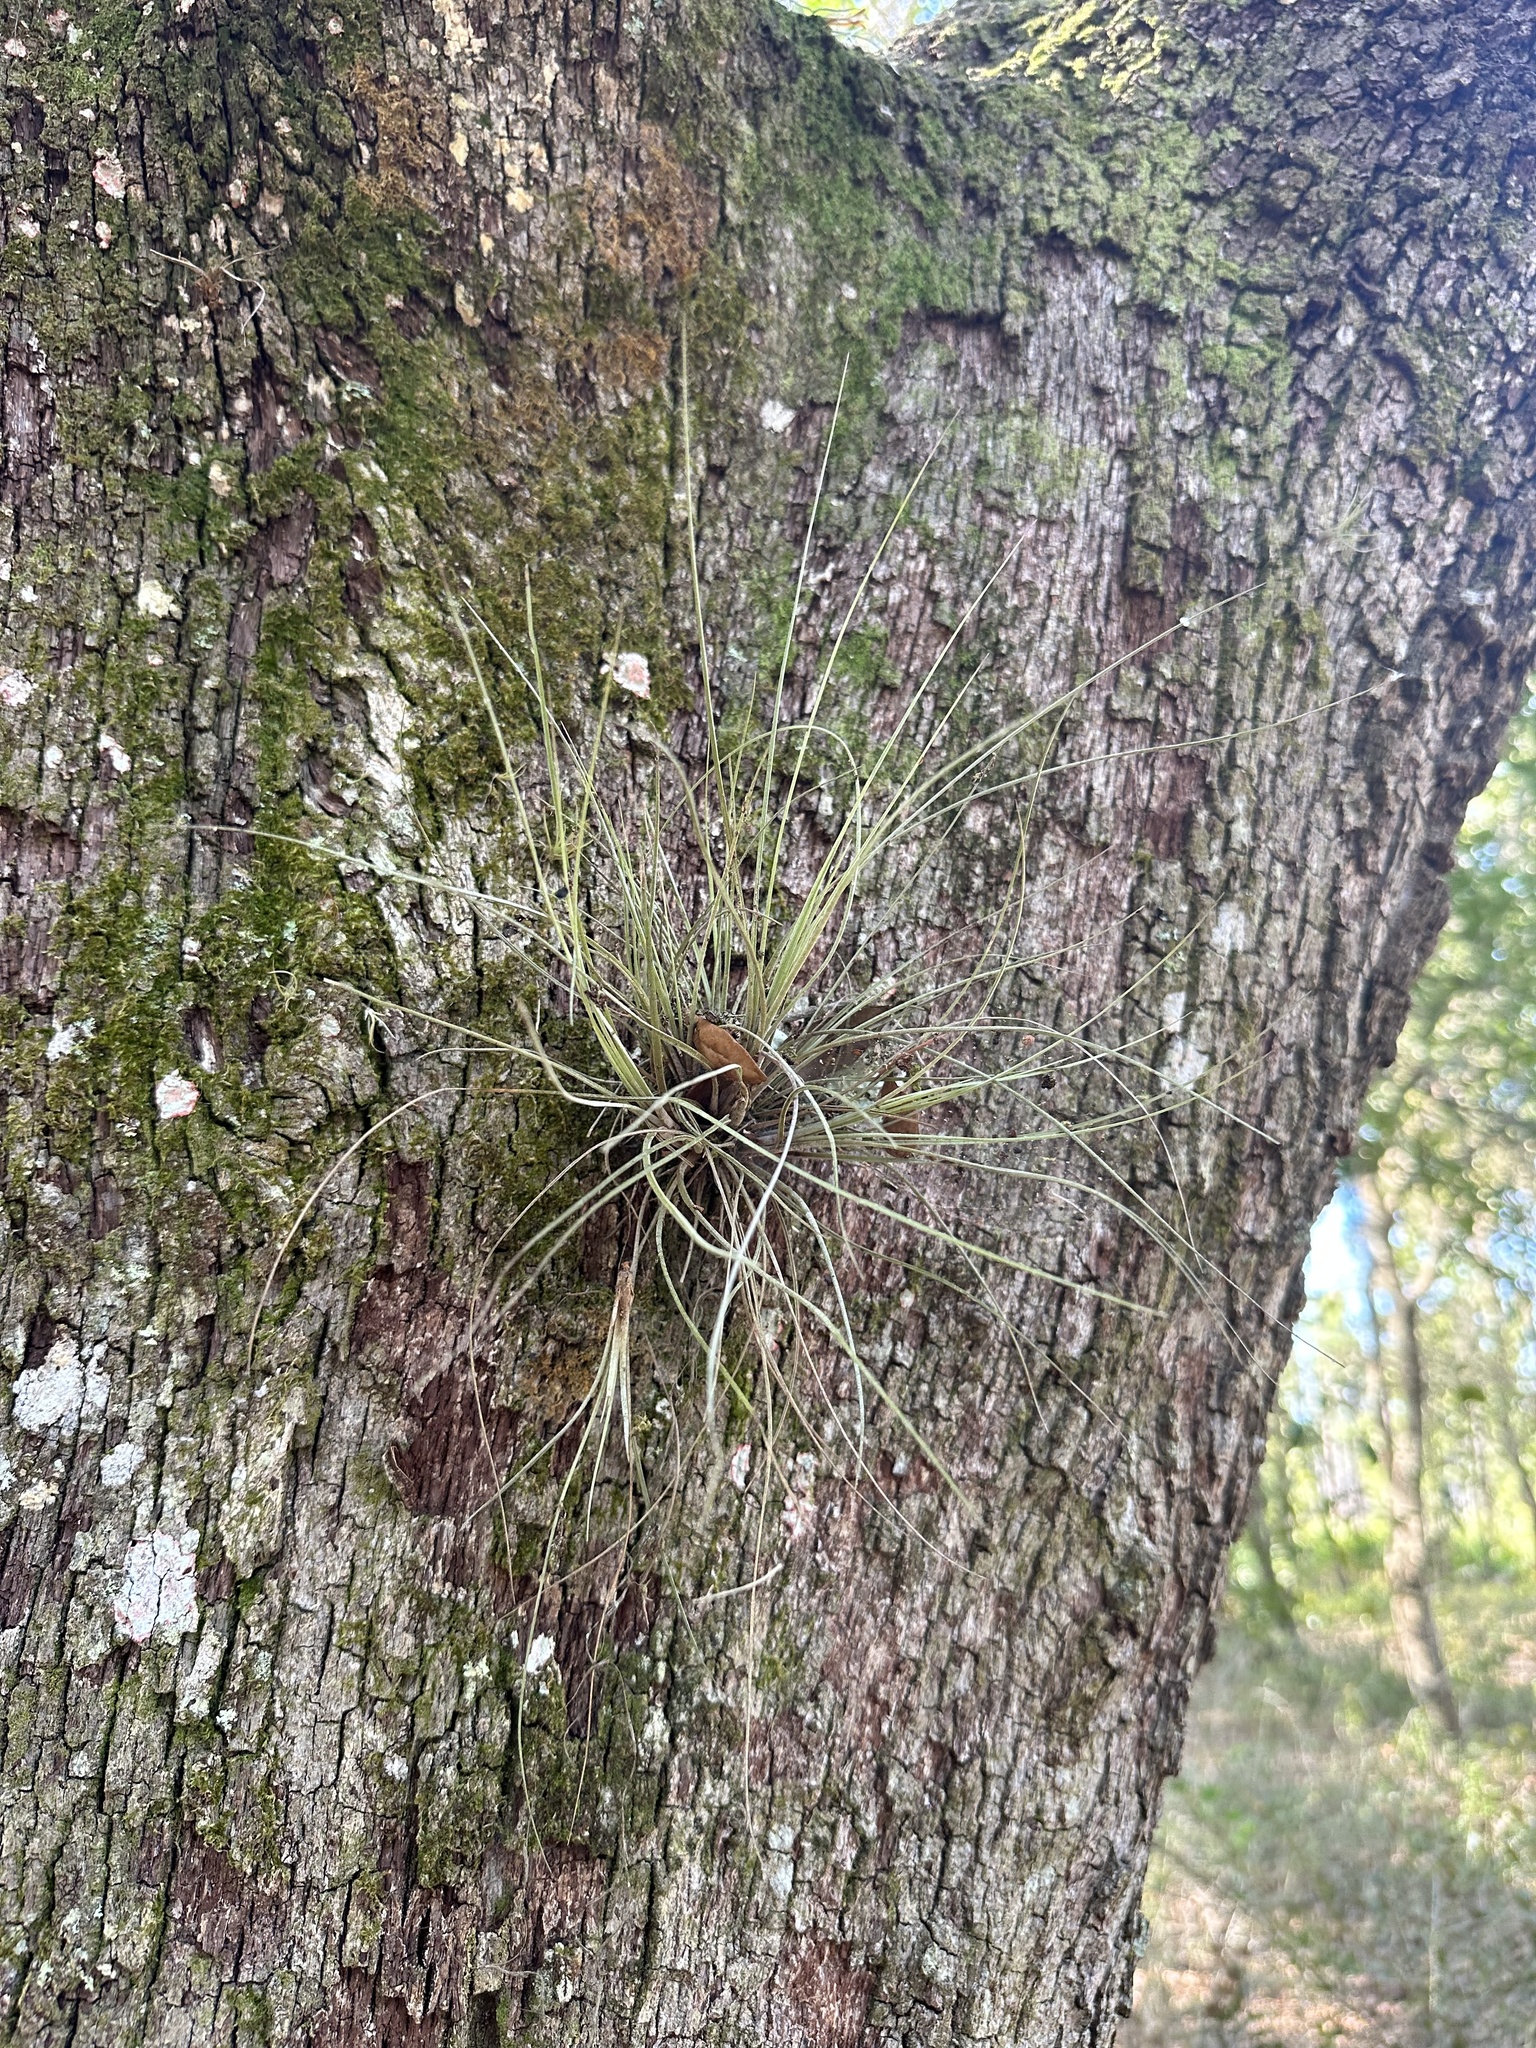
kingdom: Plantae
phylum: Tracheophyta
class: Liliopsida
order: Poales
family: Bromeliaceae
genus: Tillandsia
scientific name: Tillandsia bartramii
